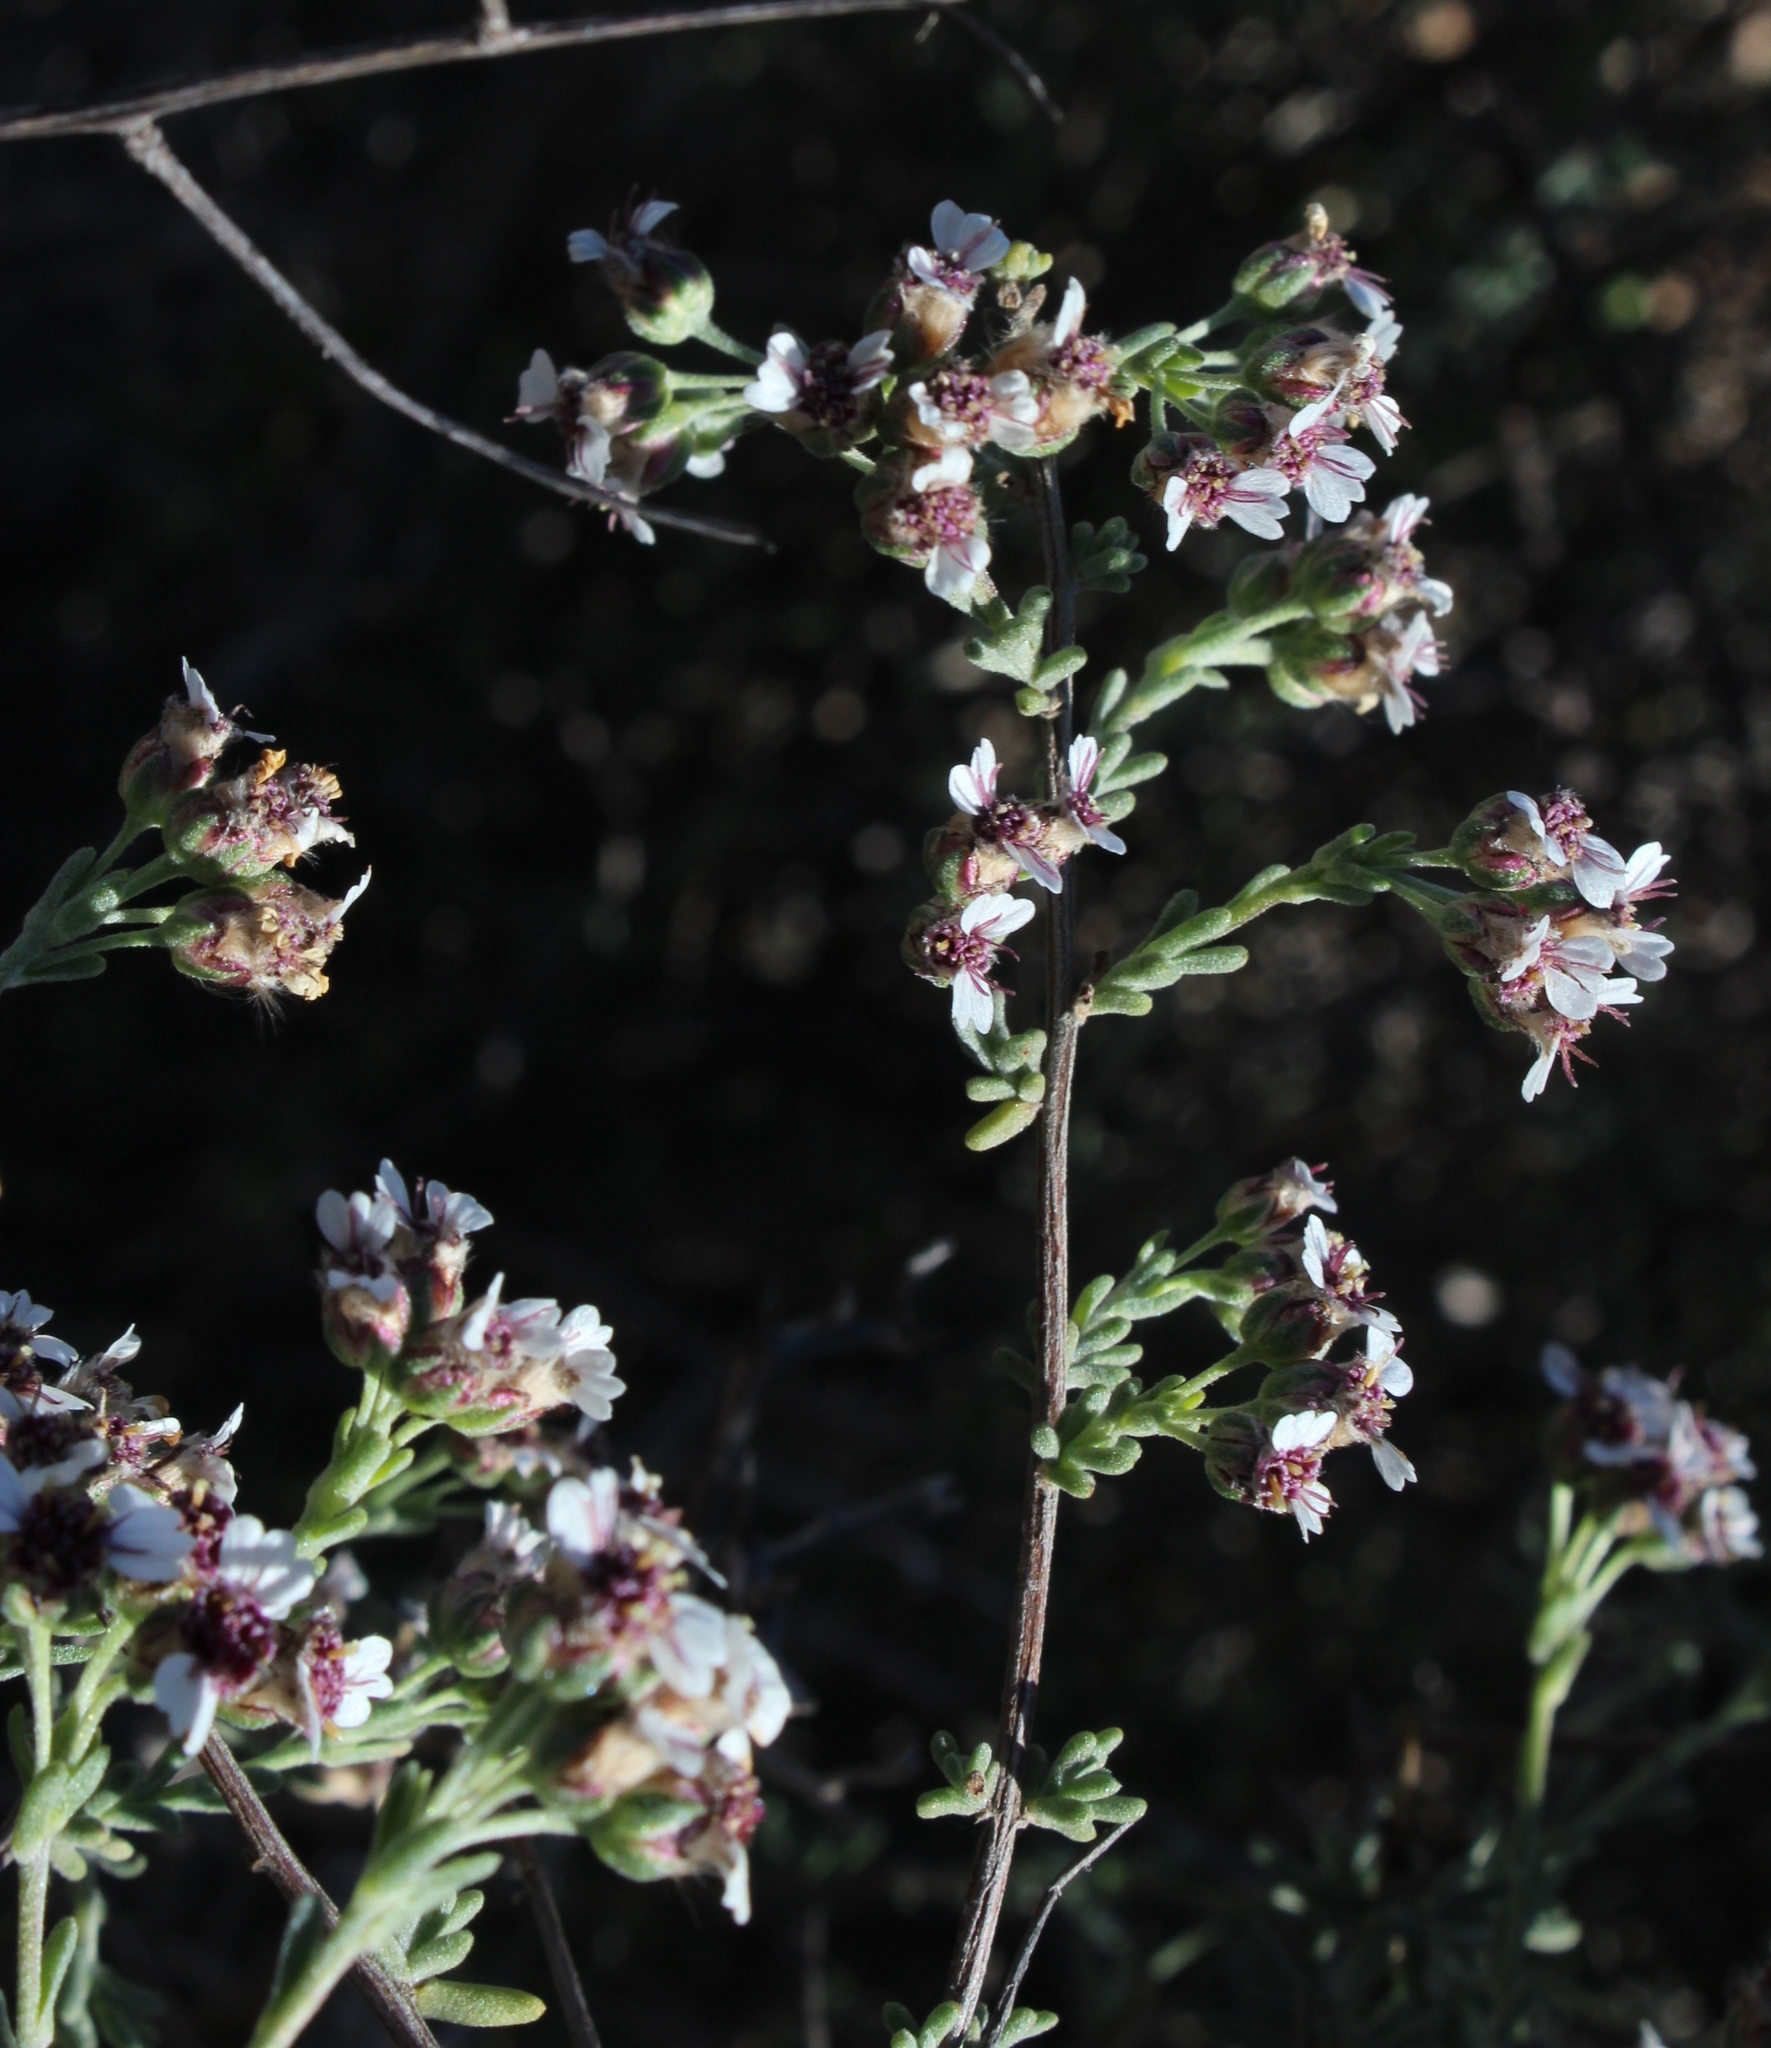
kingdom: Plantae
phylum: Tracheophyta
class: Magnoliopsida
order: Asterales
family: Asteraceae
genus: Eriocephalus
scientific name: Eriocephalus brevifolius
